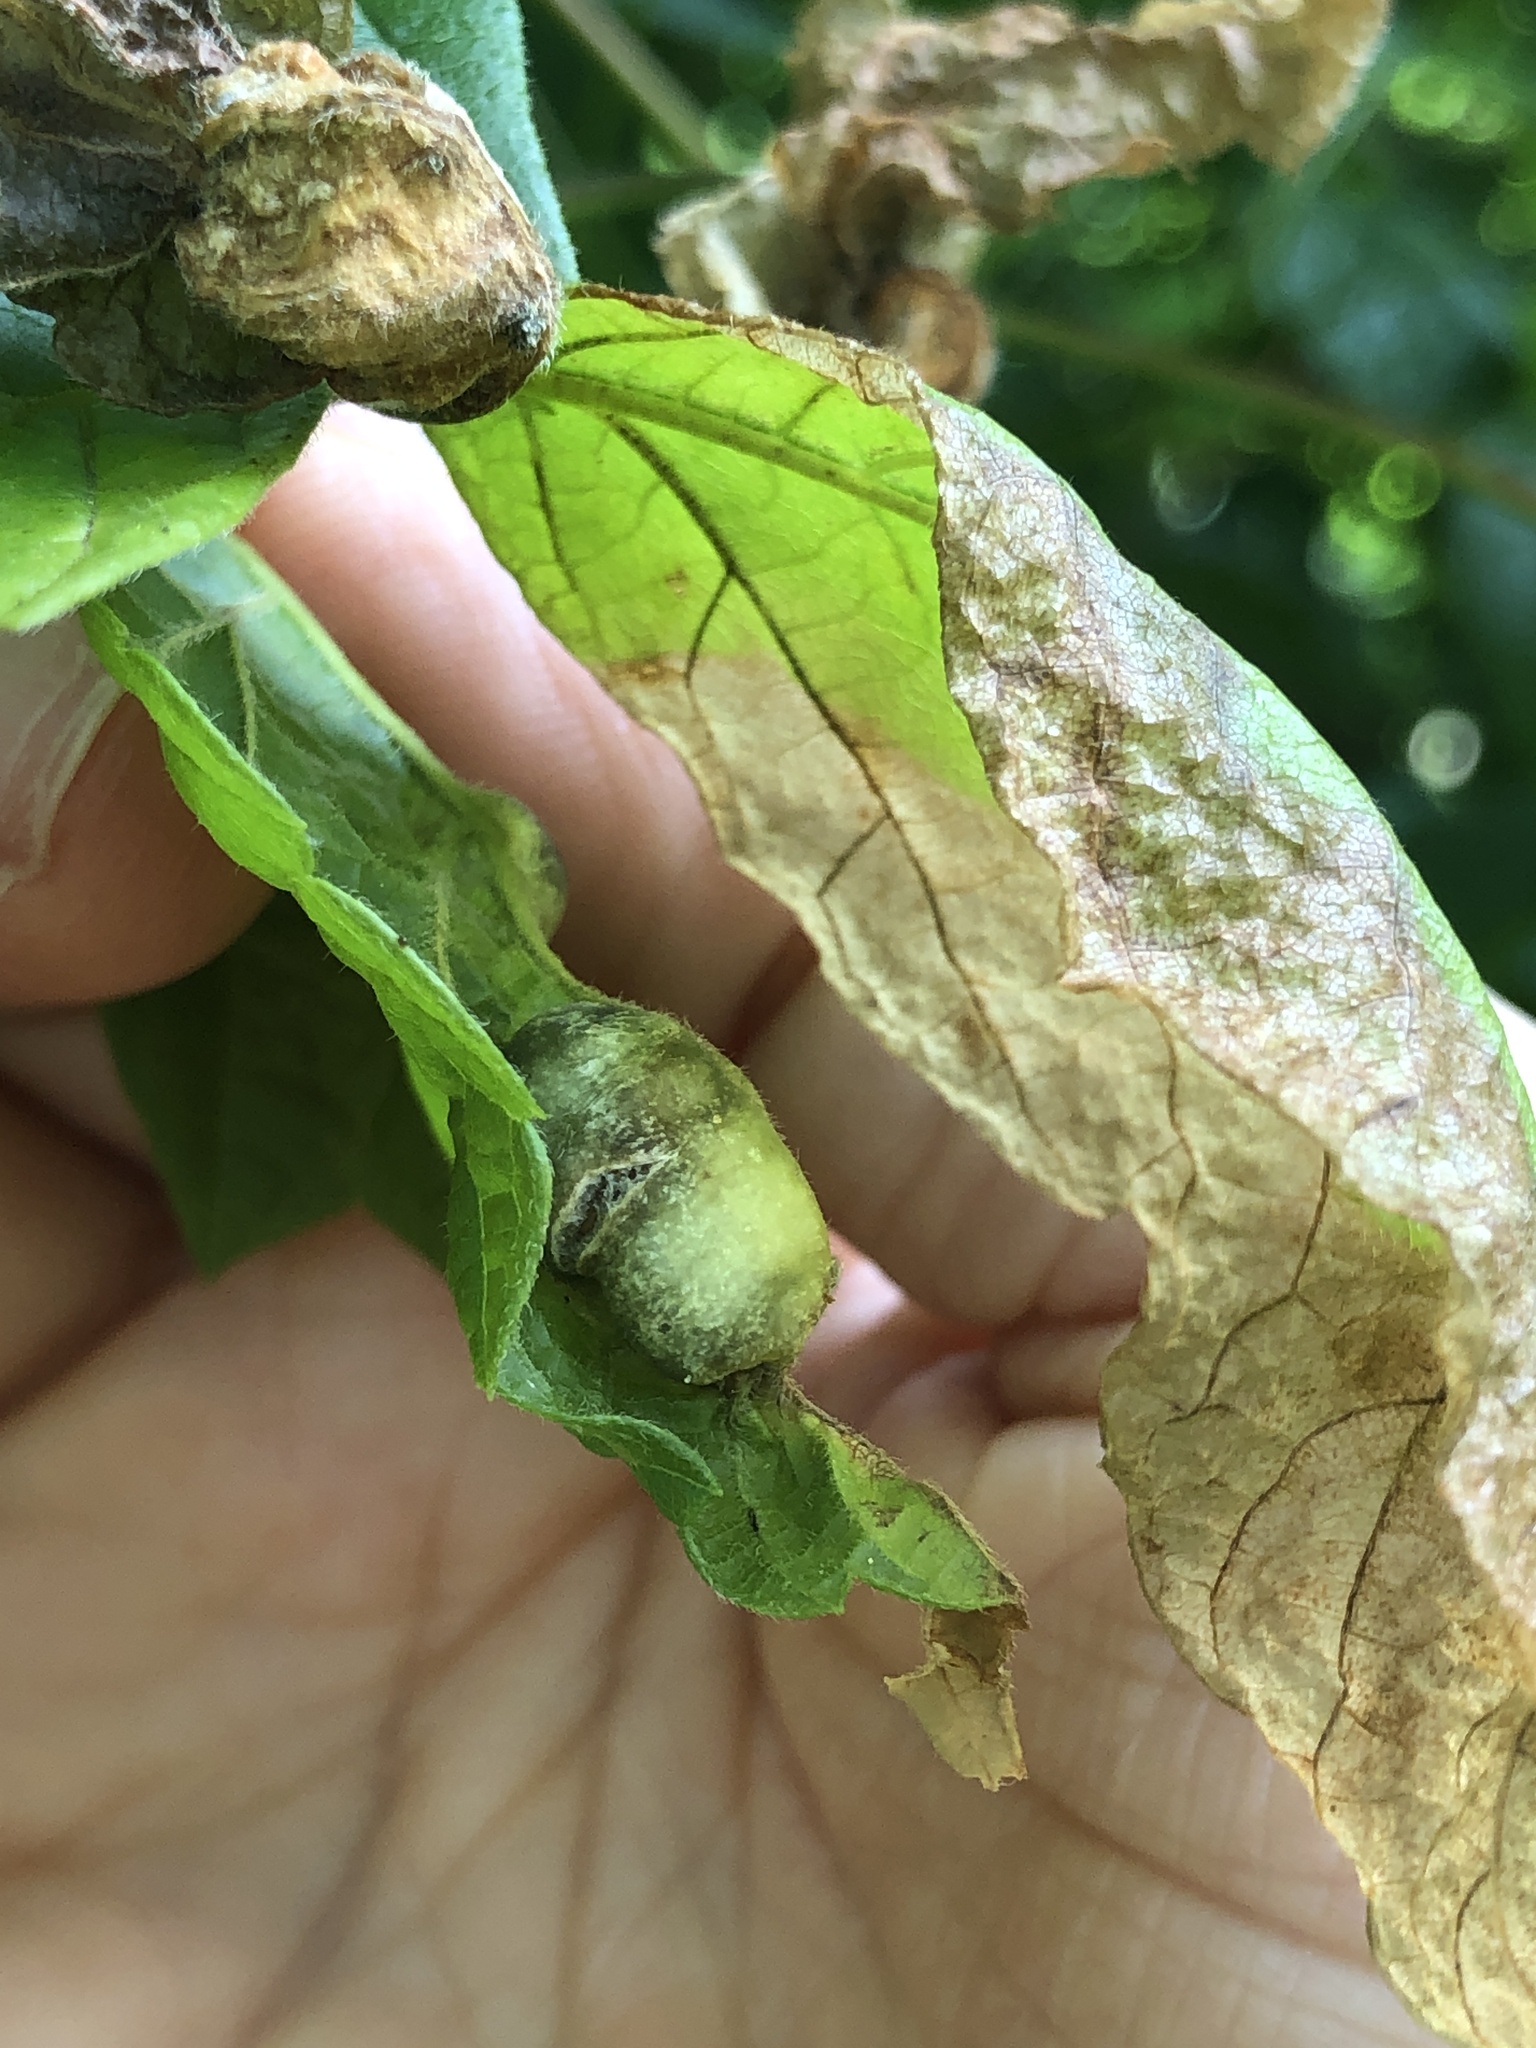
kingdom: Animalia
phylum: Arthropoda
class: Insecta
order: Diptera
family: Cecidomyiidae
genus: Contarinia
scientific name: Contarinia negundinis
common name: Boxelder budgall midge
